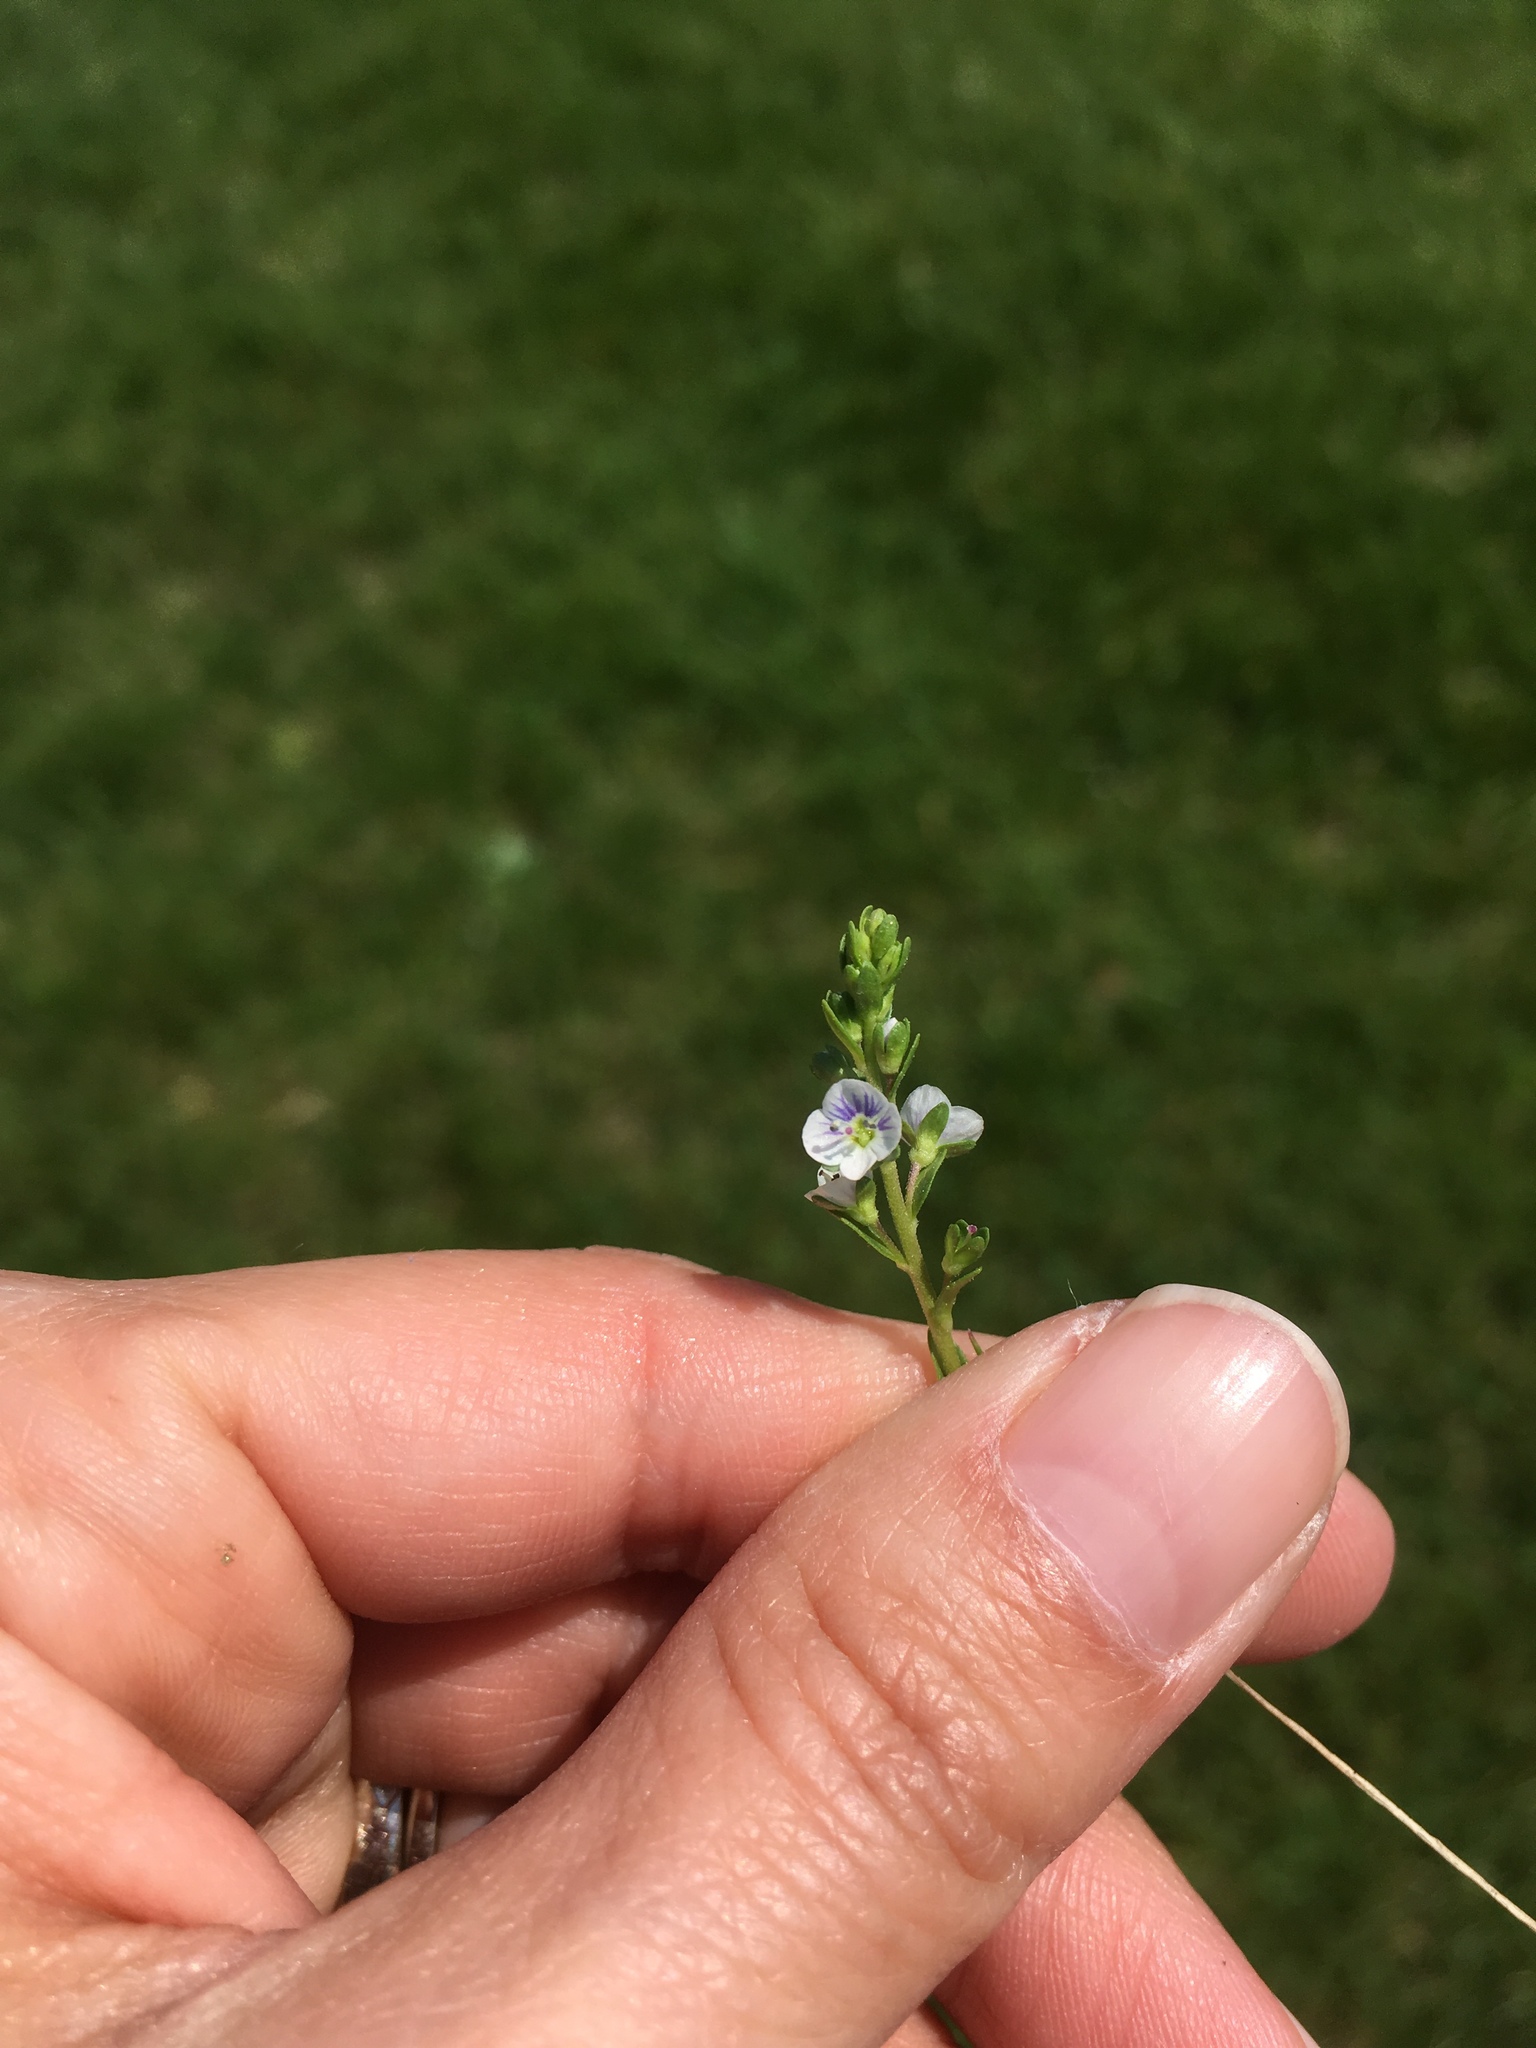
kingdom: Plantae
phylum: Tracheophyta
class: Magnoliopsida
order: Lamiales
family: Plantaginaceae
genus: Veronica
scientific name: Veronica serpyllifolia
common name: Thyme-leaved speedwell
